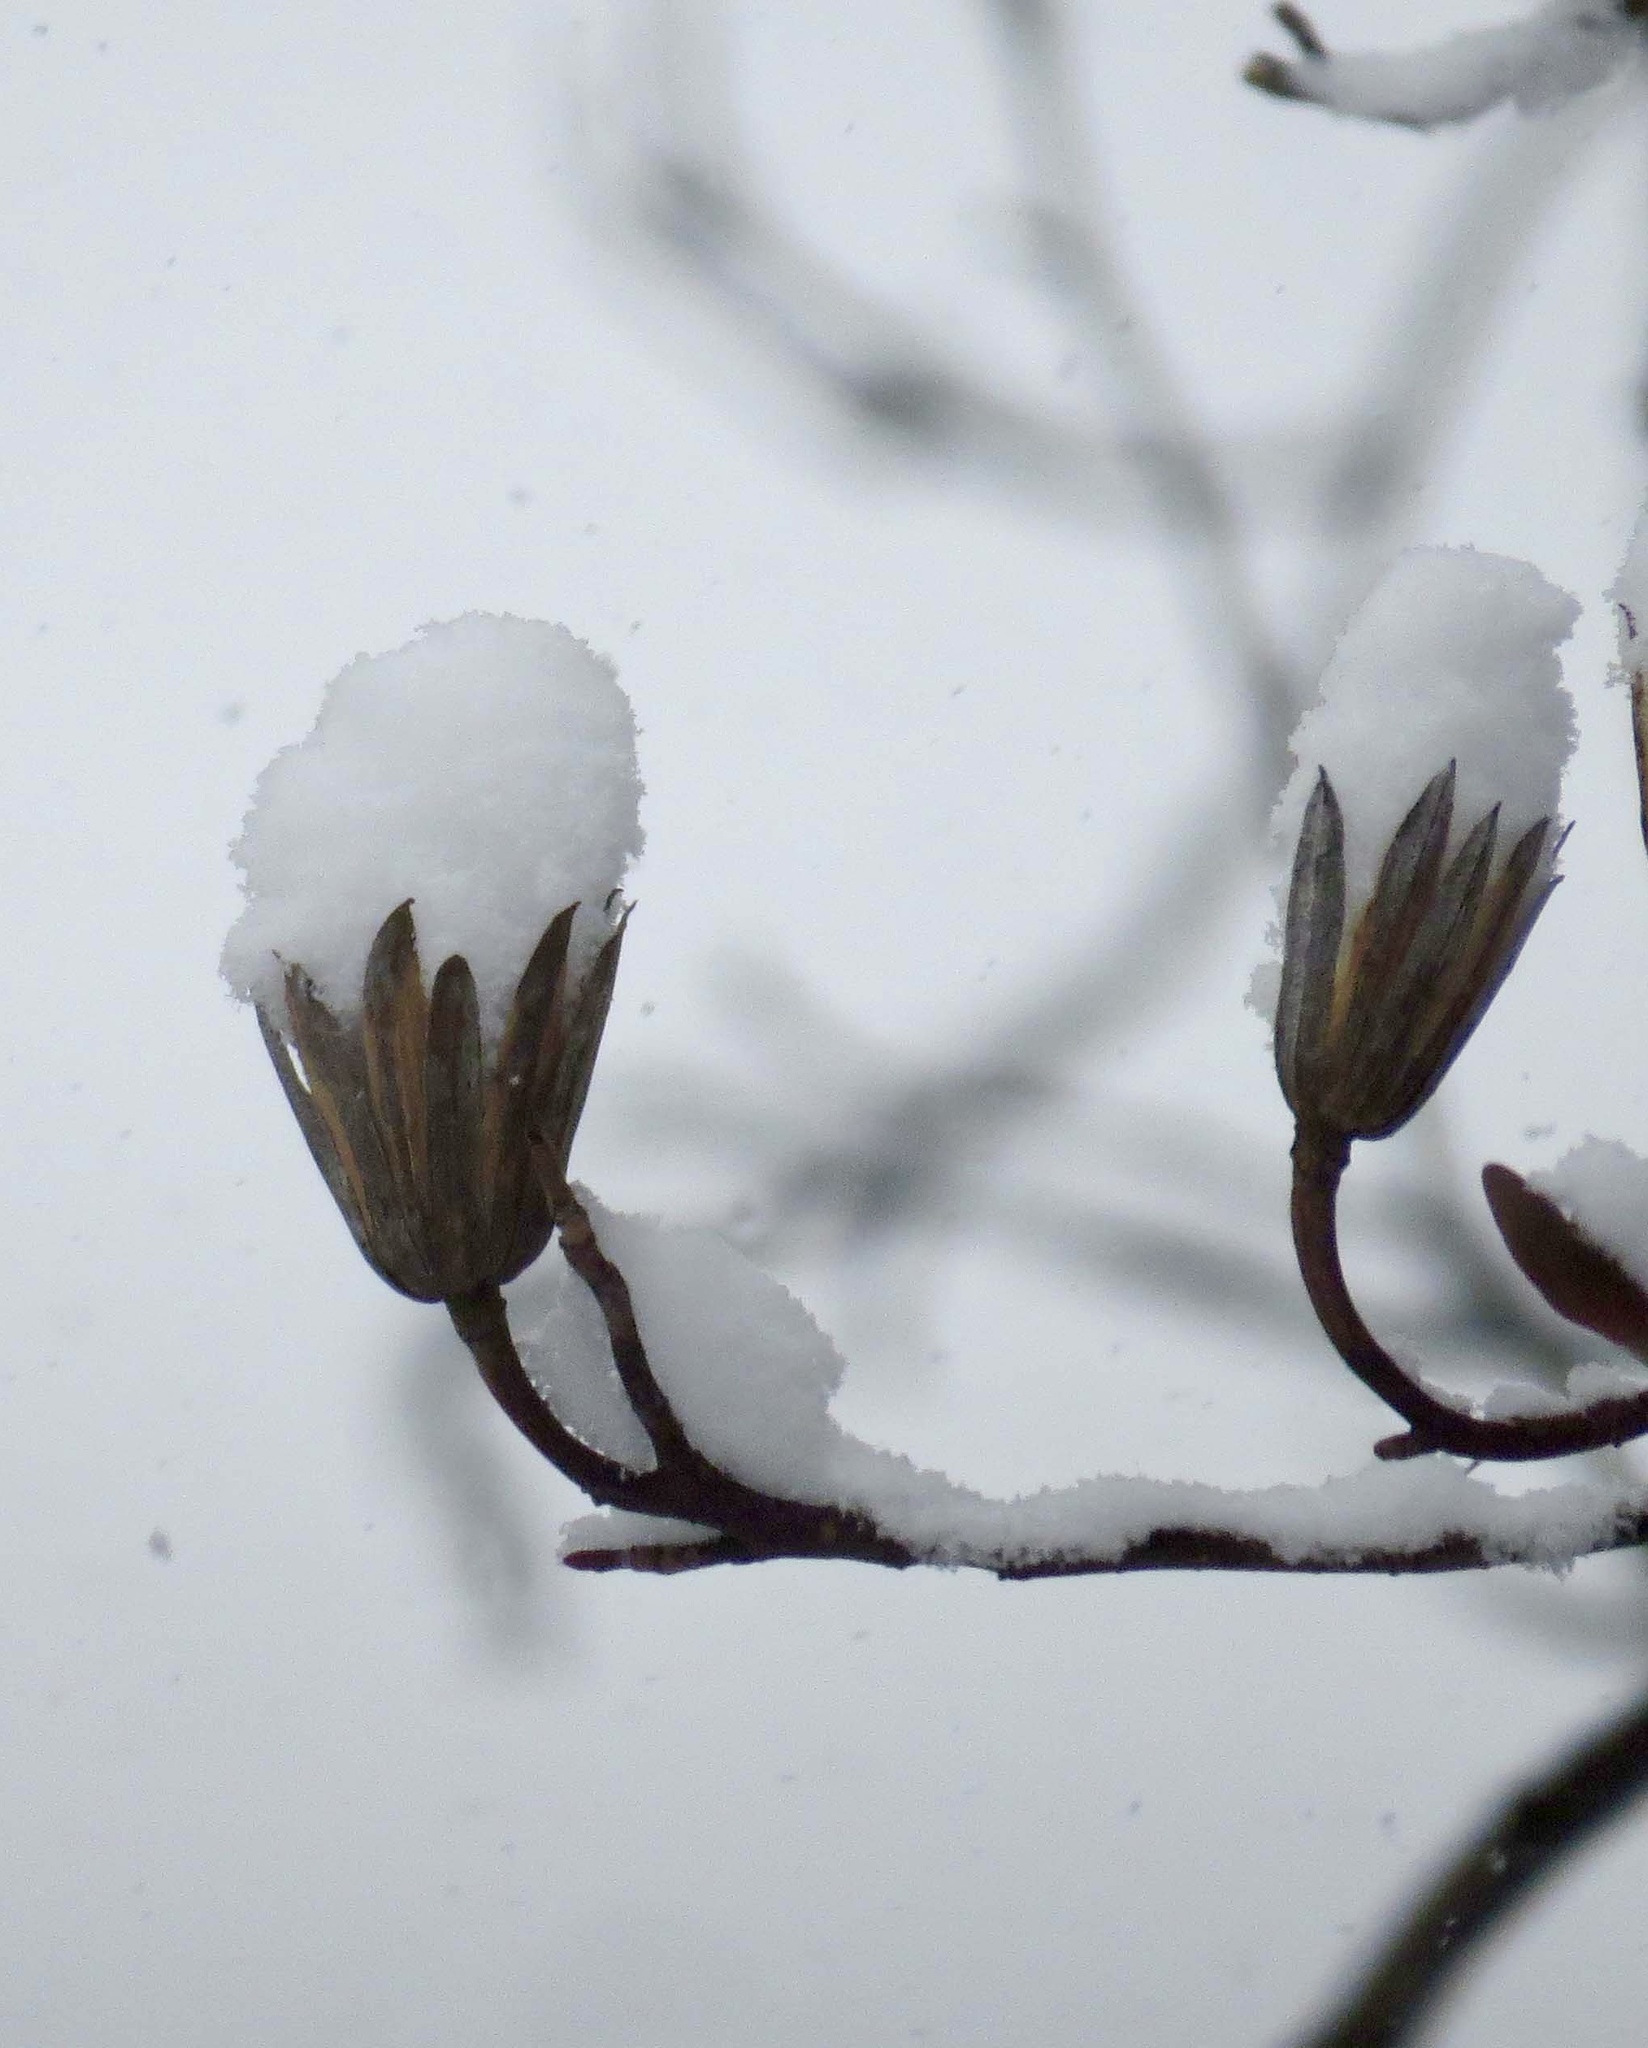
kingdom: Plantae
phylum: Tracheophyta
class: Magnoliopsida
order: Magnoliales
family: Magnoliaceae
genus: Liriodendron
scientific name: Liriodendron tulipifera
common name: Tulip tree
